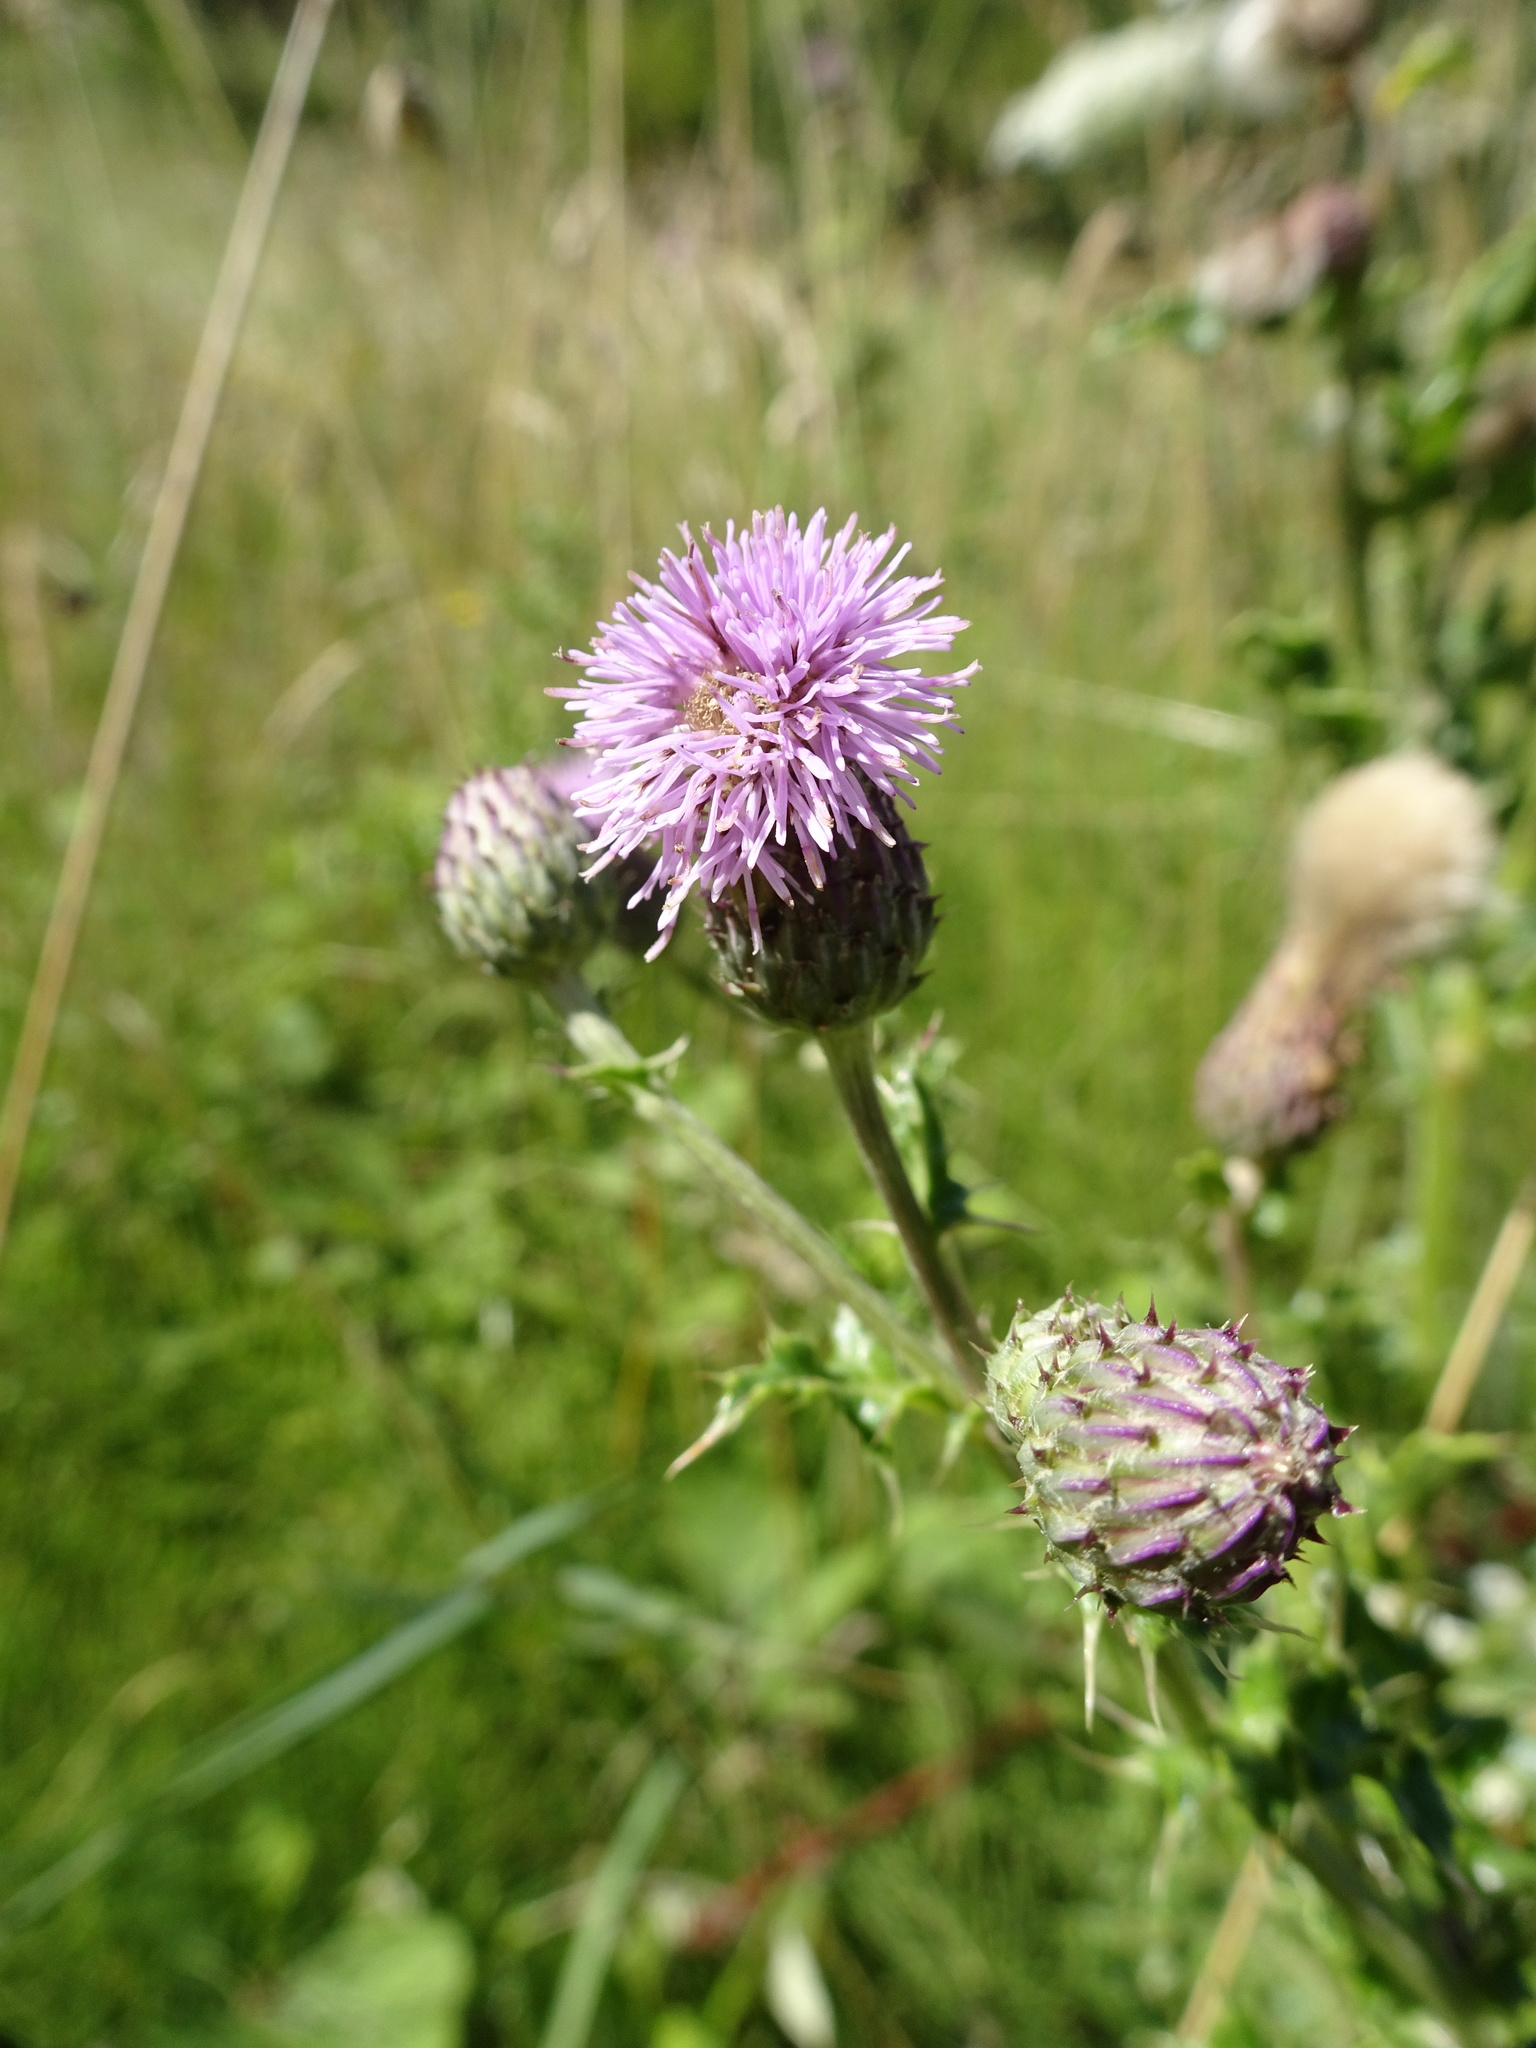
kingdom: Plantae
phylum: Tracheophyta
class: Magnoliopsida
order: Asterales
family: Asteraceae
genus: Cirsium
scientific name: Cirsium arvense
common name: Creeping thistle
